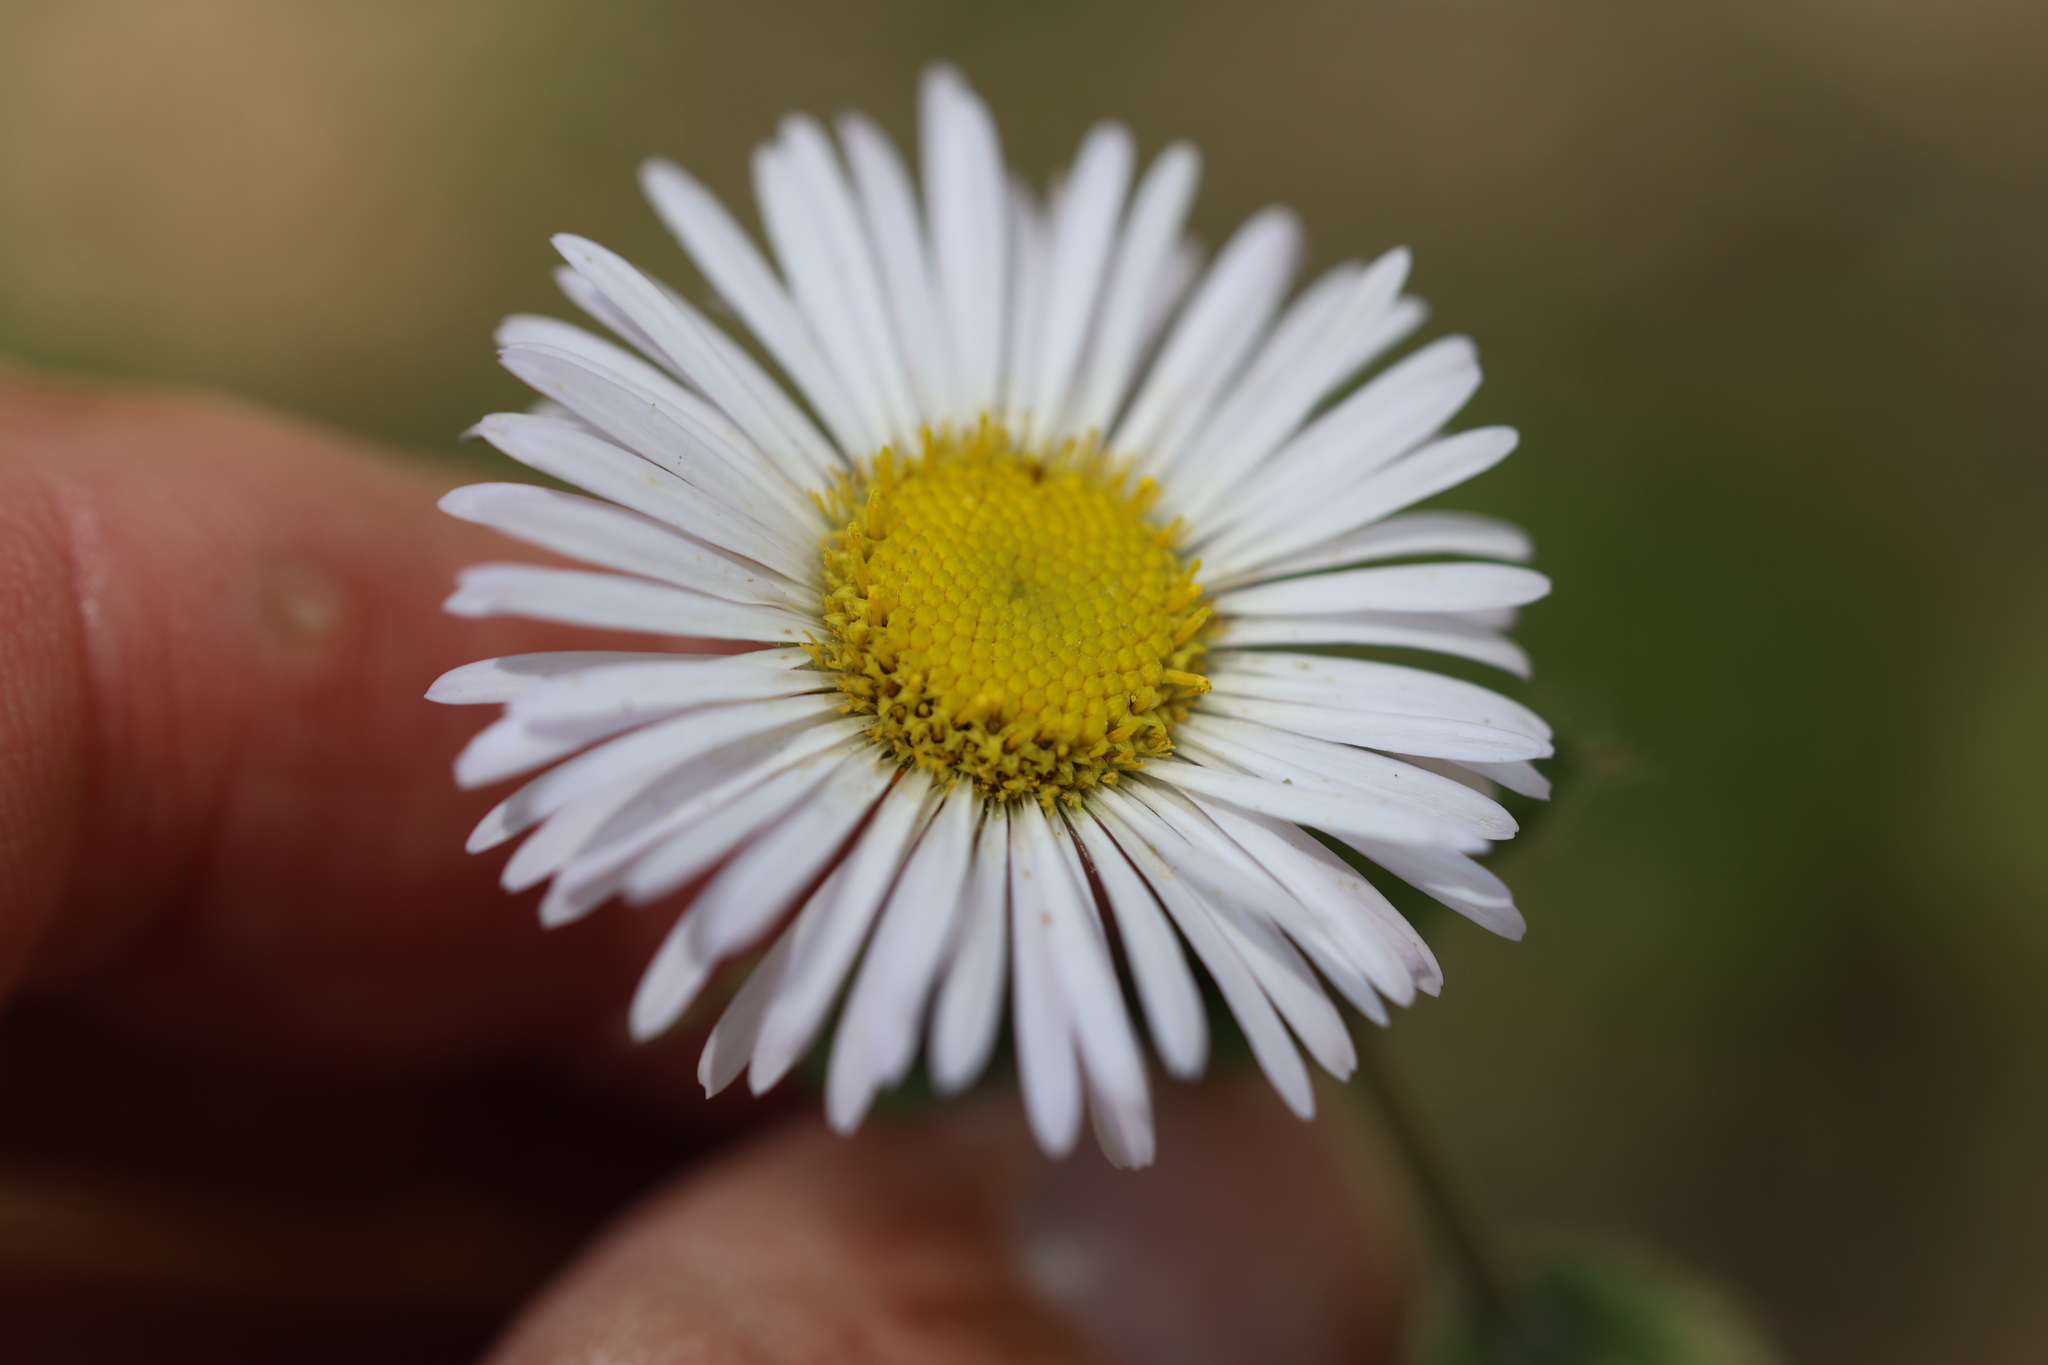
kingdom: Plantae
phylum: Tracheophyta
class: Magnoliopsida
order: Asterales
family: Asteraceae
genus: Erigeron
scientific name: Erigeron eximius
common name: Spruce-fir fleabane
